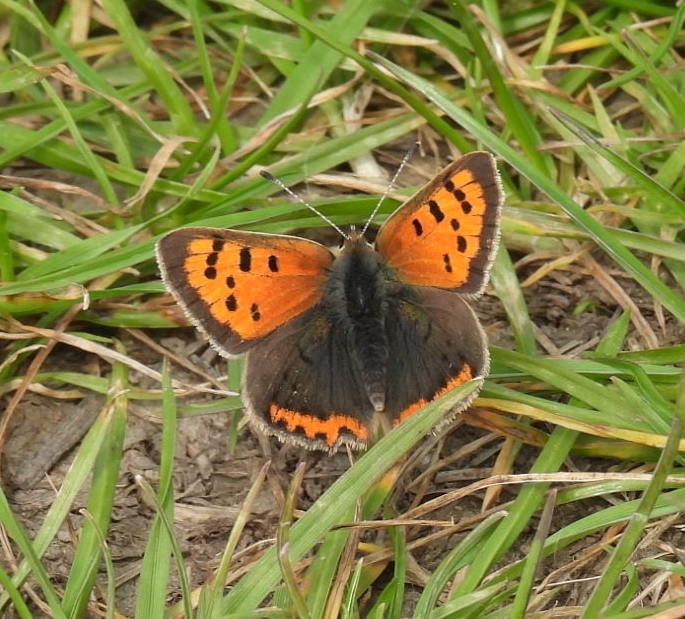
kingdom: Animalia
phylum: Arthropoda
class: Insecta
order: Lepidoptera
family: Lycaenidae
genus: Lycaena
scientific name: Lycaena phlaeas
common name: Small copper
